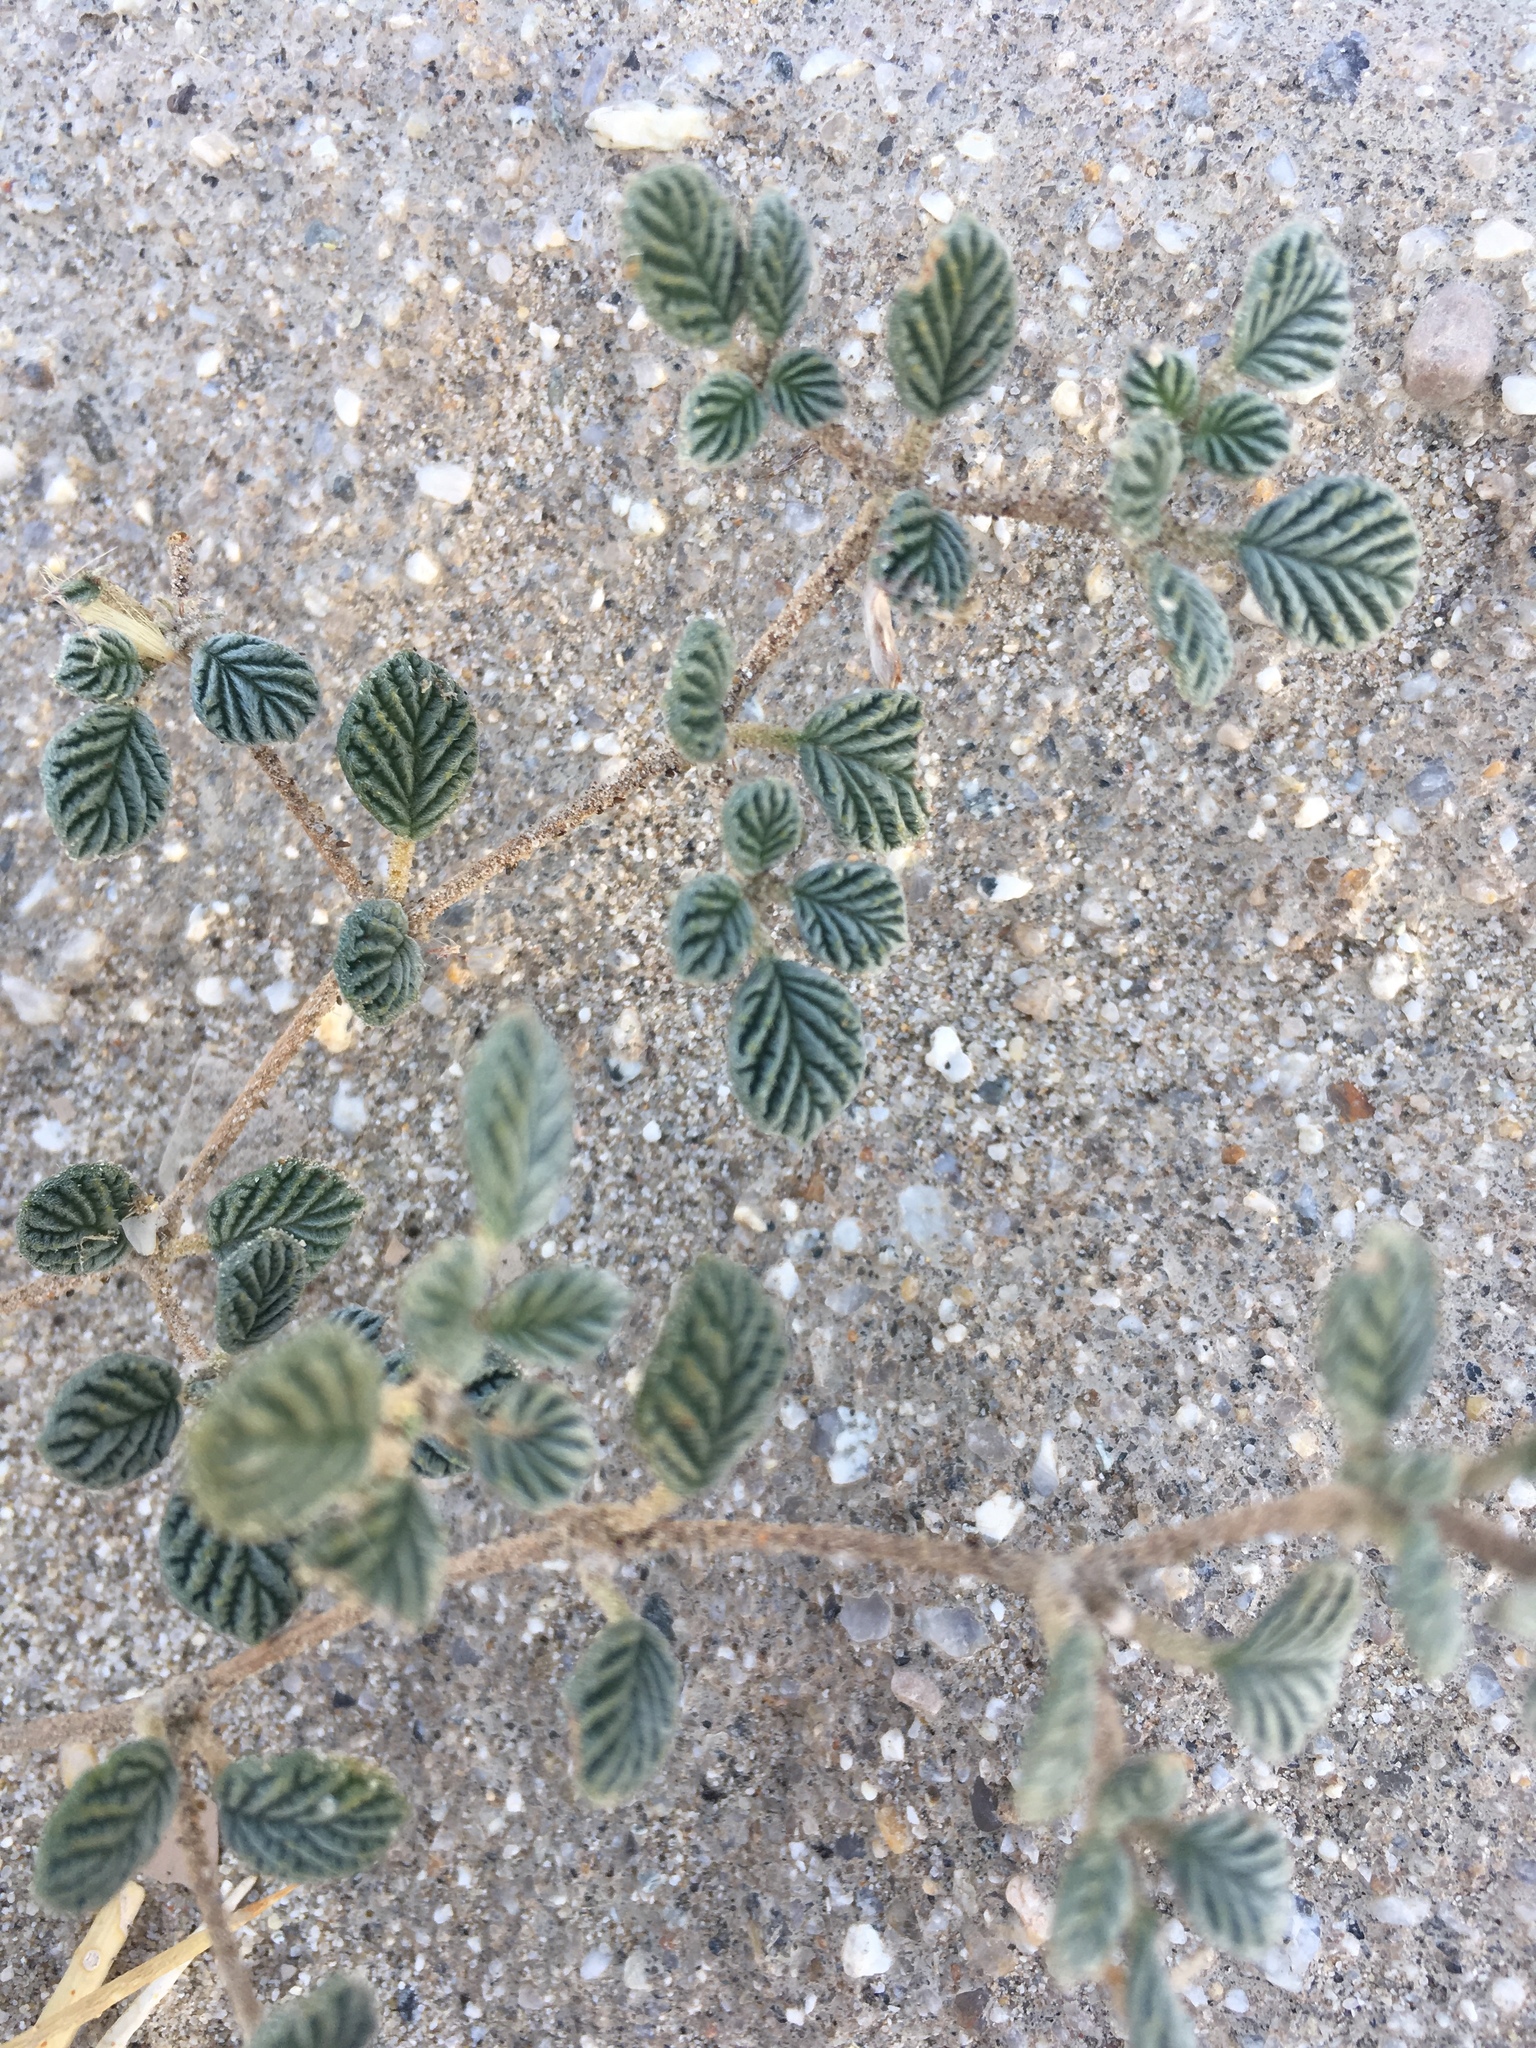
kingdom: Plantae
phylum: Tracheophyta
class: Magnoliopsida
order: Boraginales
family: Ehretiaceae
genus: Tiquilia
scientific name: Tiquilia plicata
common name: Fan-leaf tiquilia
